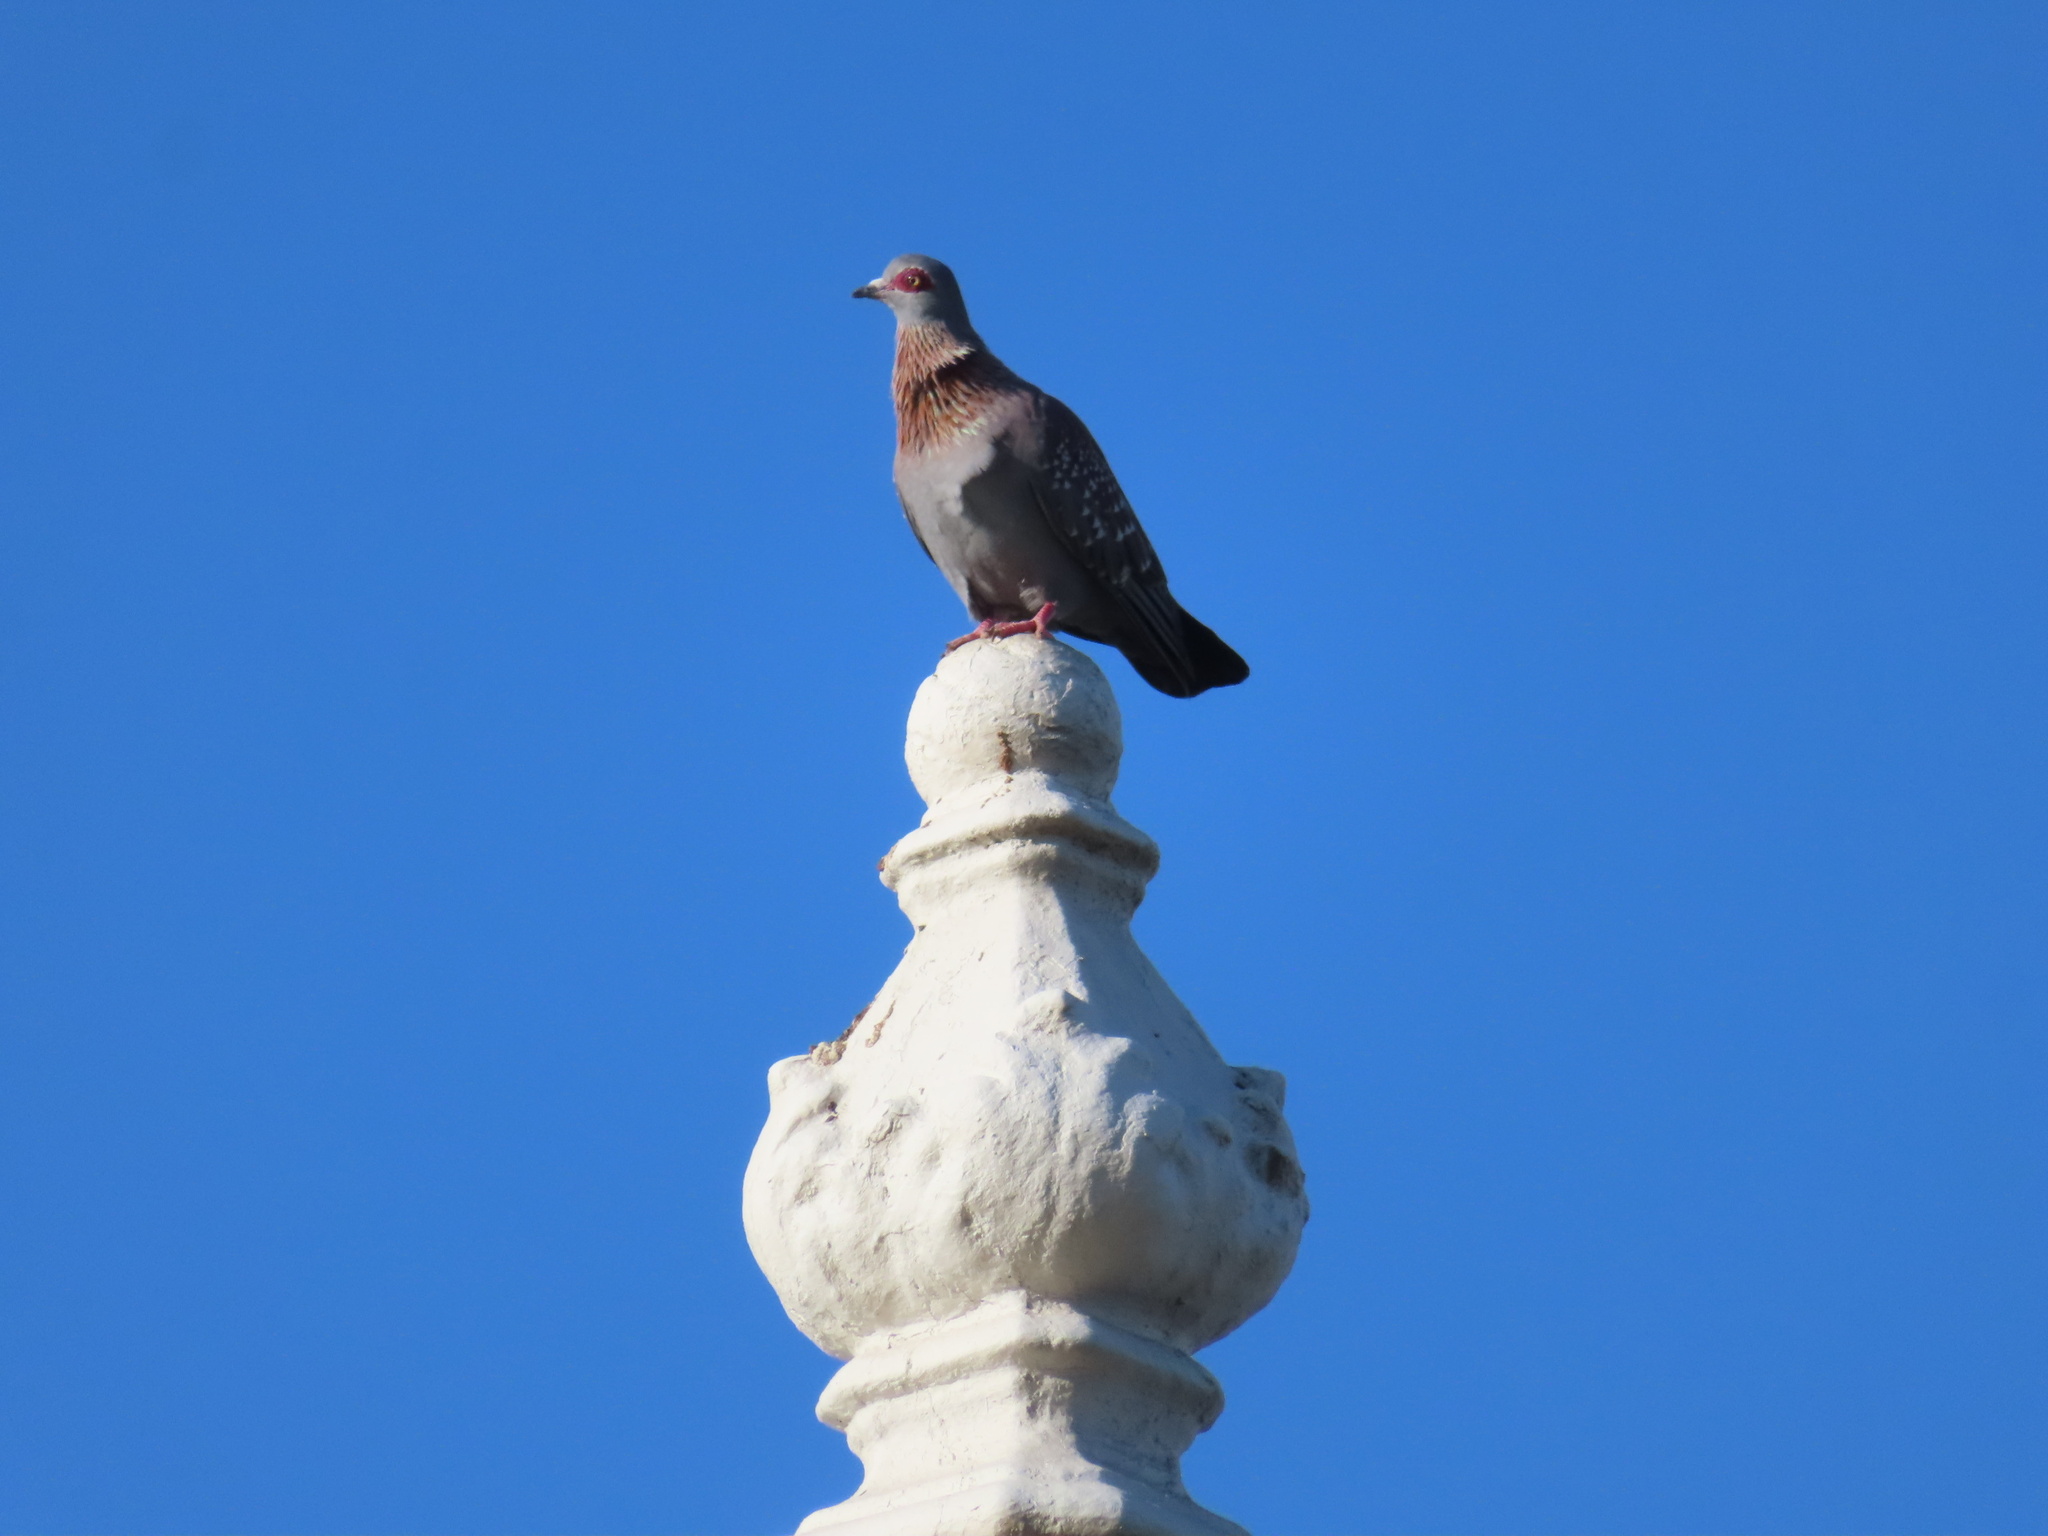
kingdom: Animalia
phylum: Chordata
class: Aves
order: Columbiformes
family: Columbidae
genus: Columba
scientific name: Columba guinea
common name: Speckled pigeon
